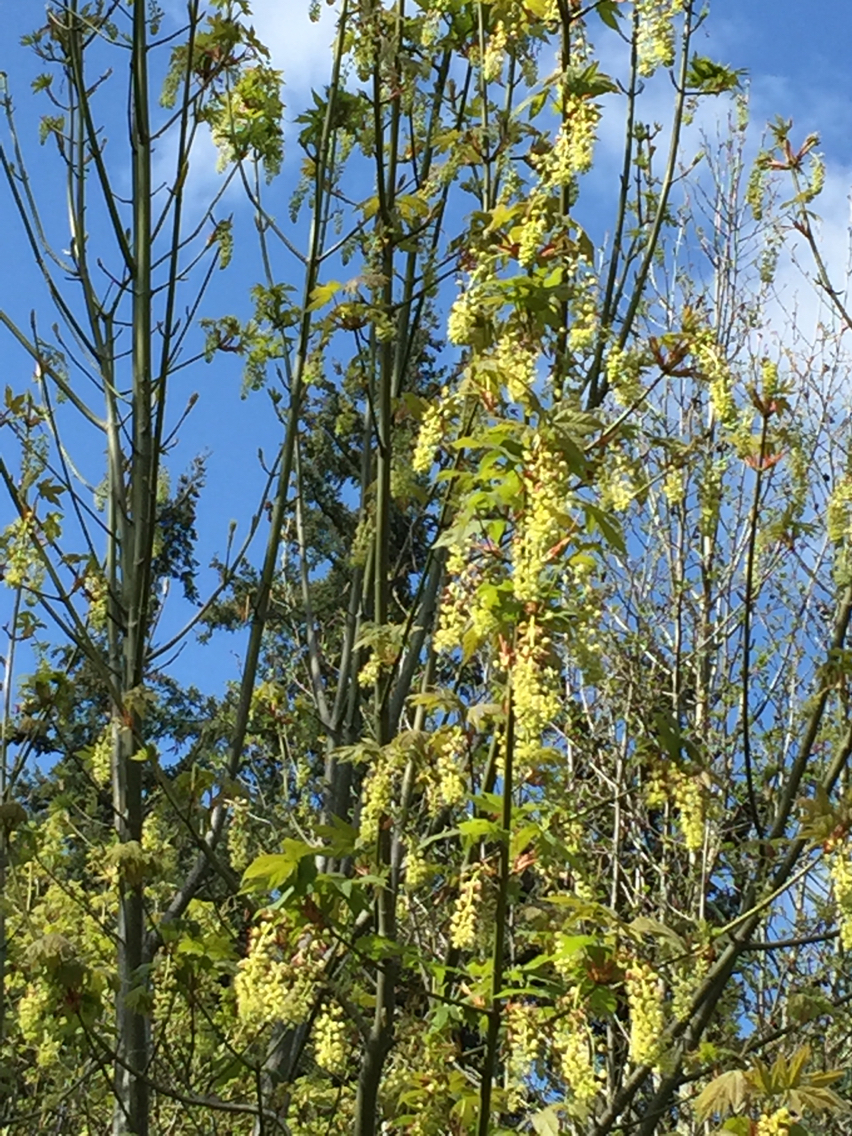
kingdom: Plantae
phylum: Tracheophyta
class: Magnoliopsida
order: Sapindales
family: Sapindaceae
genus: Acer
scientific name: Acer macrophyllum
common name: Oregon maple
